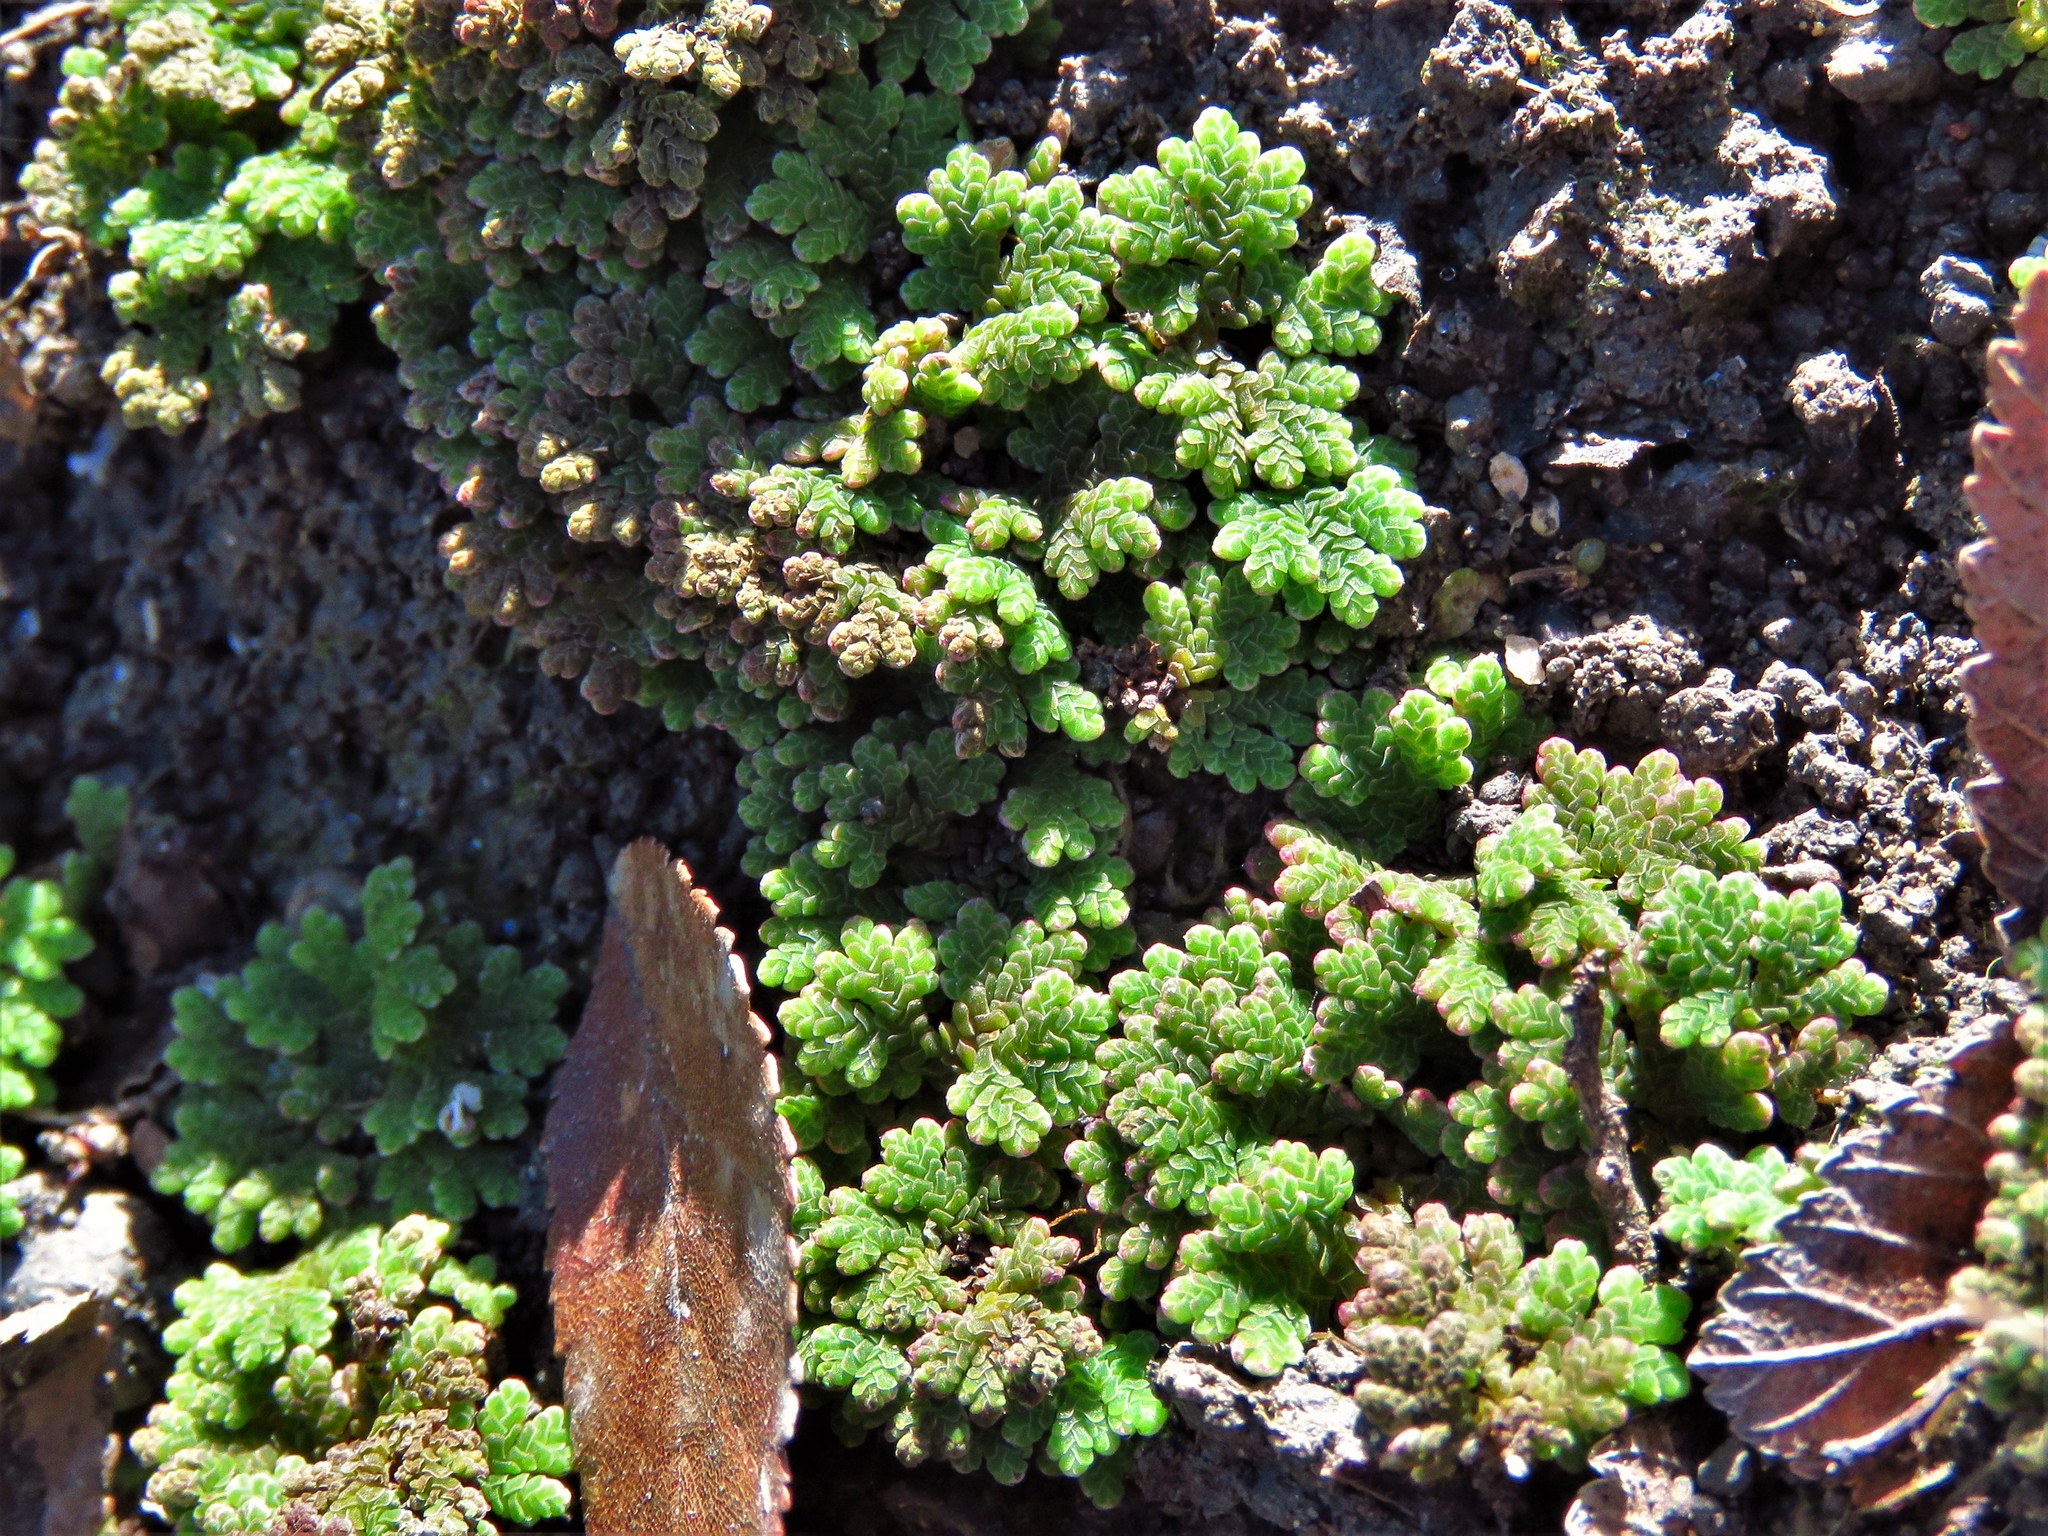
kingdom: Plantae
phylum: Tracheophyta
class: Polypodiopsida
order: Salviniales
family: Salviniaceae
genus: Azolla
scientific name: Azolla caroliniana
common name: Carolina mosquitofern
